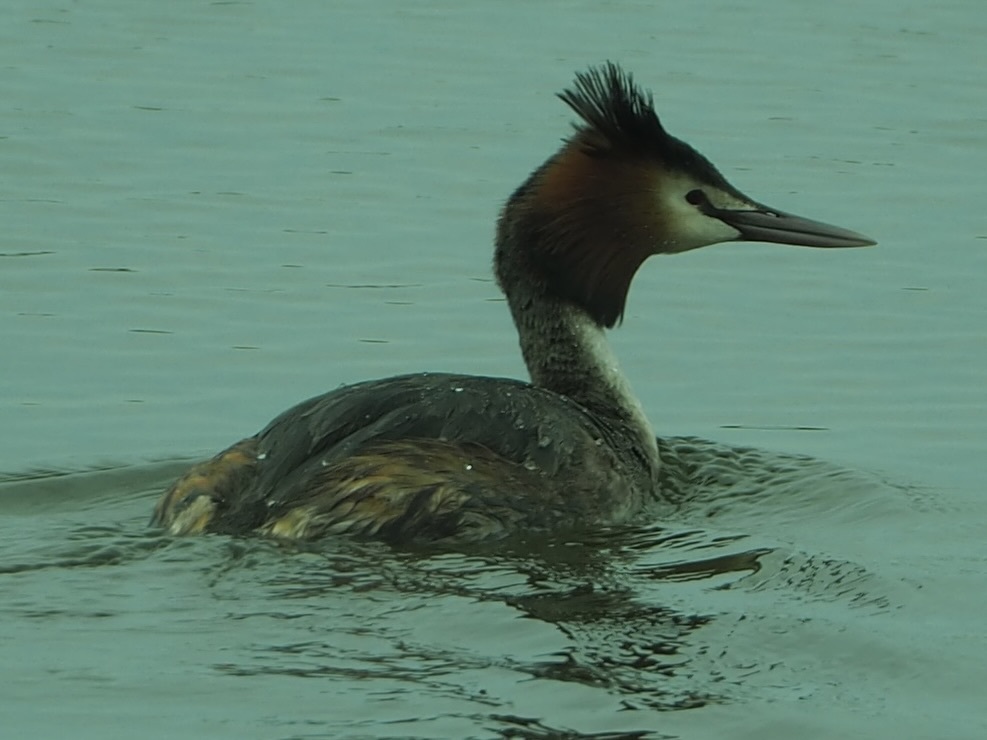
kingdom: Animalia
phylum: Chordata
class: Aves
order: Podicipediformes
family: Podicipedidae
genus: Podiceps
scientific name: Podiceps cristatus
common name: Great crested grebe
